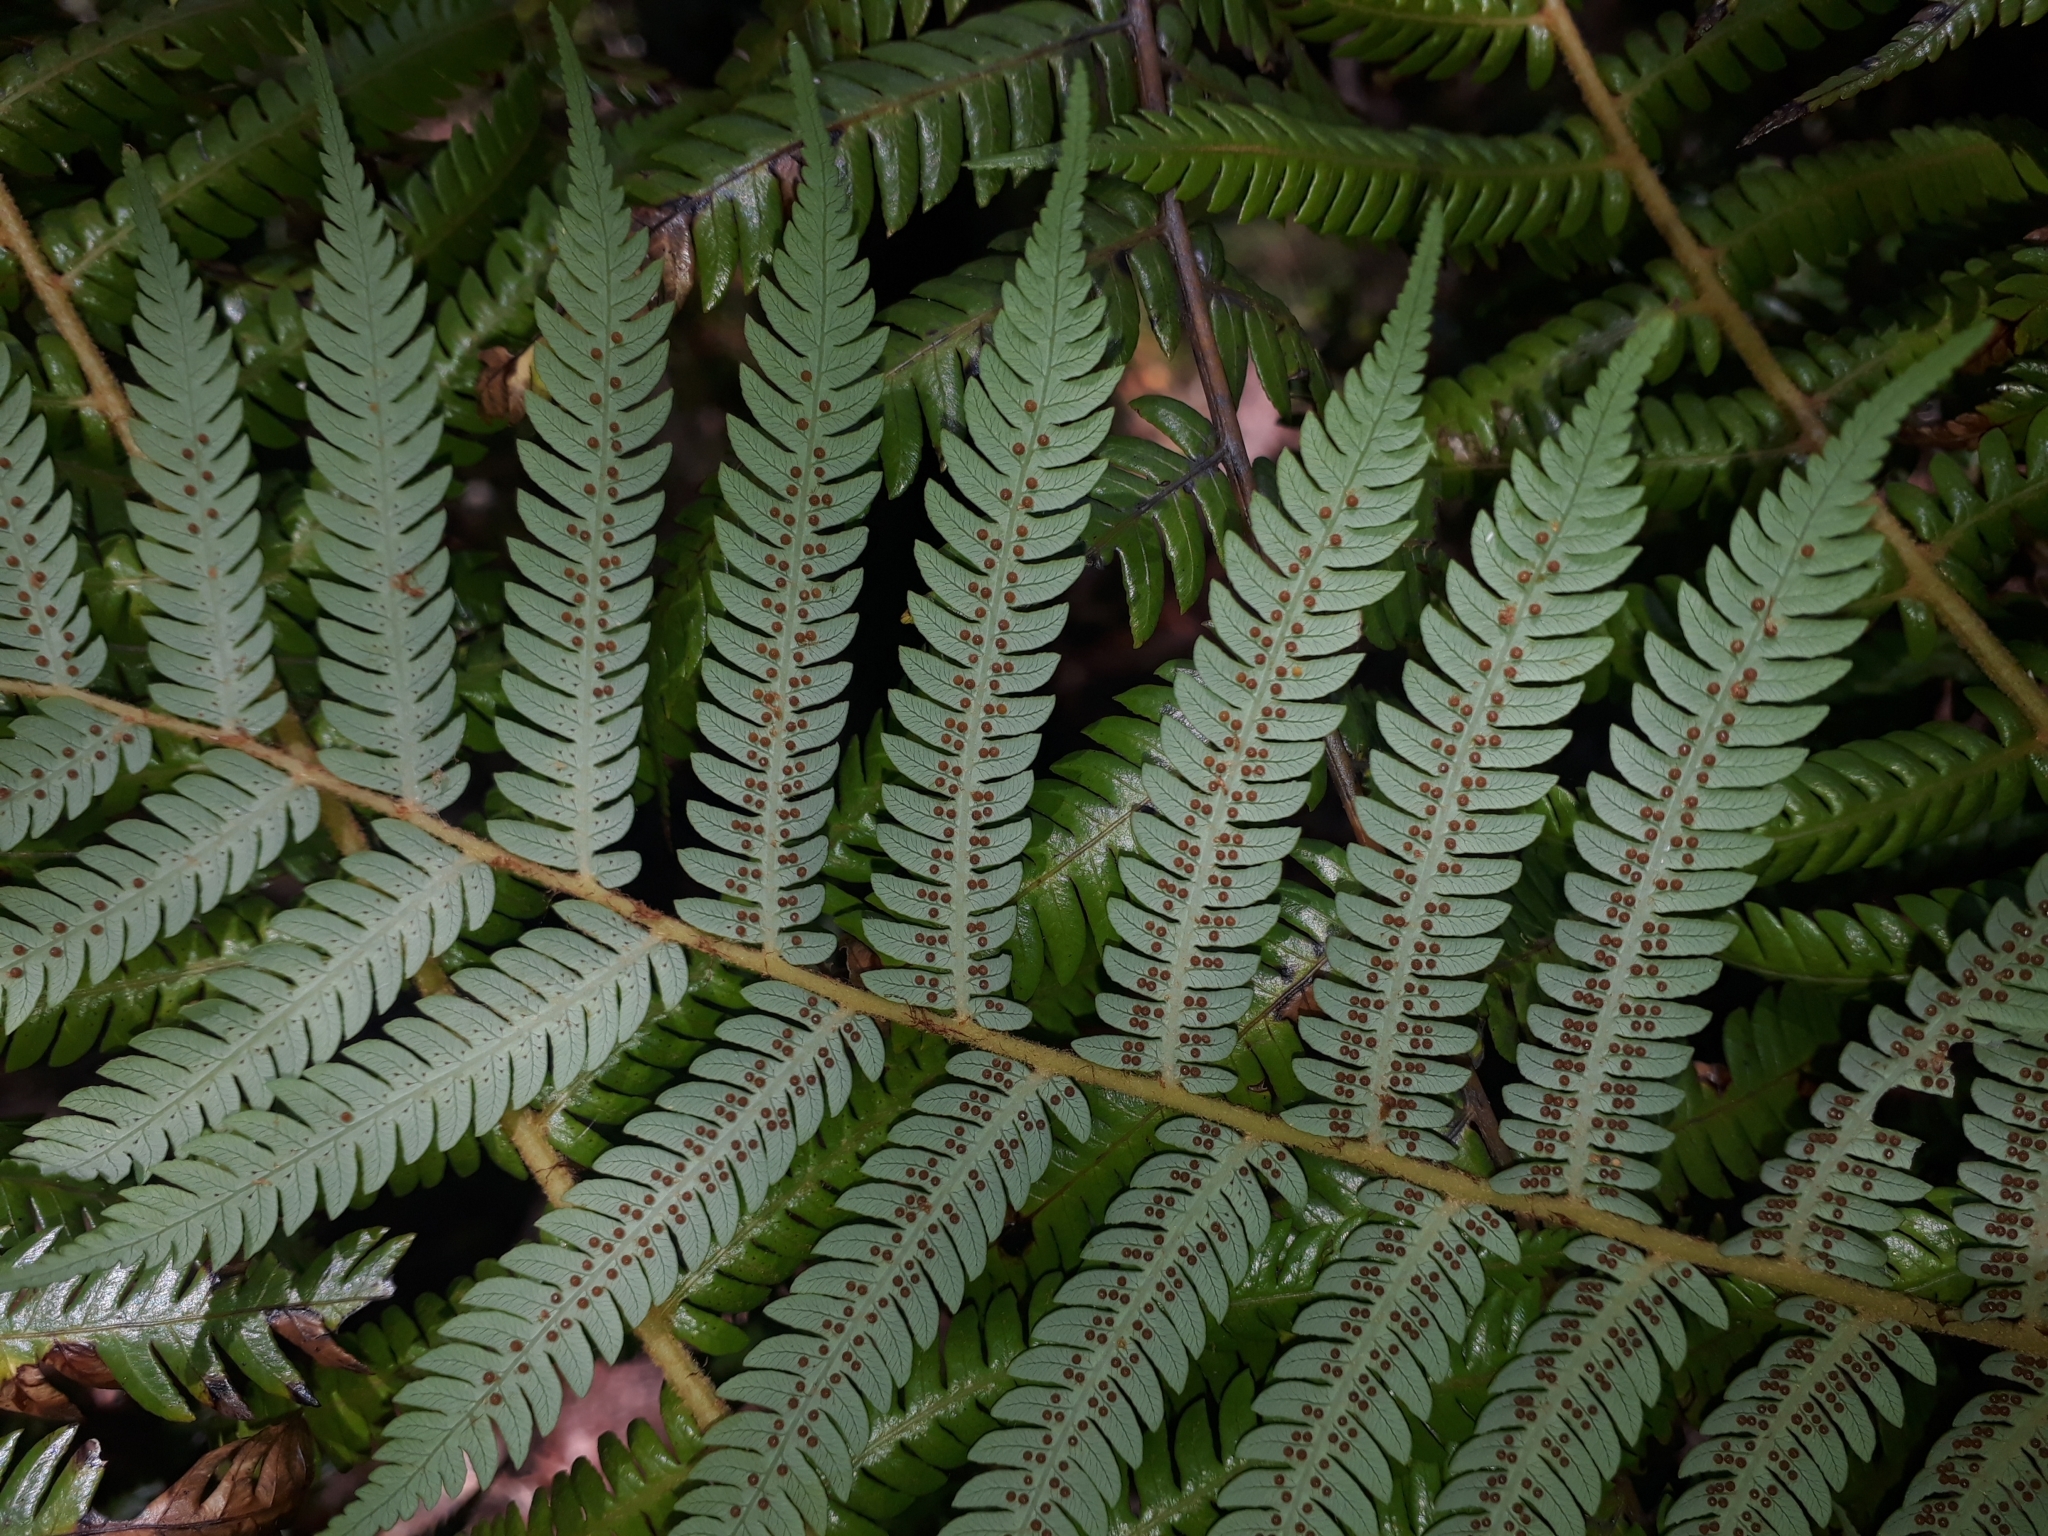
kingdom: Plantae
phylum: Tracheophyta
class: Polypodiopsida
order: Cyatheales
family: Cyatheaceae
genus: Alsophila
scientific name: Alsophila dealbata
